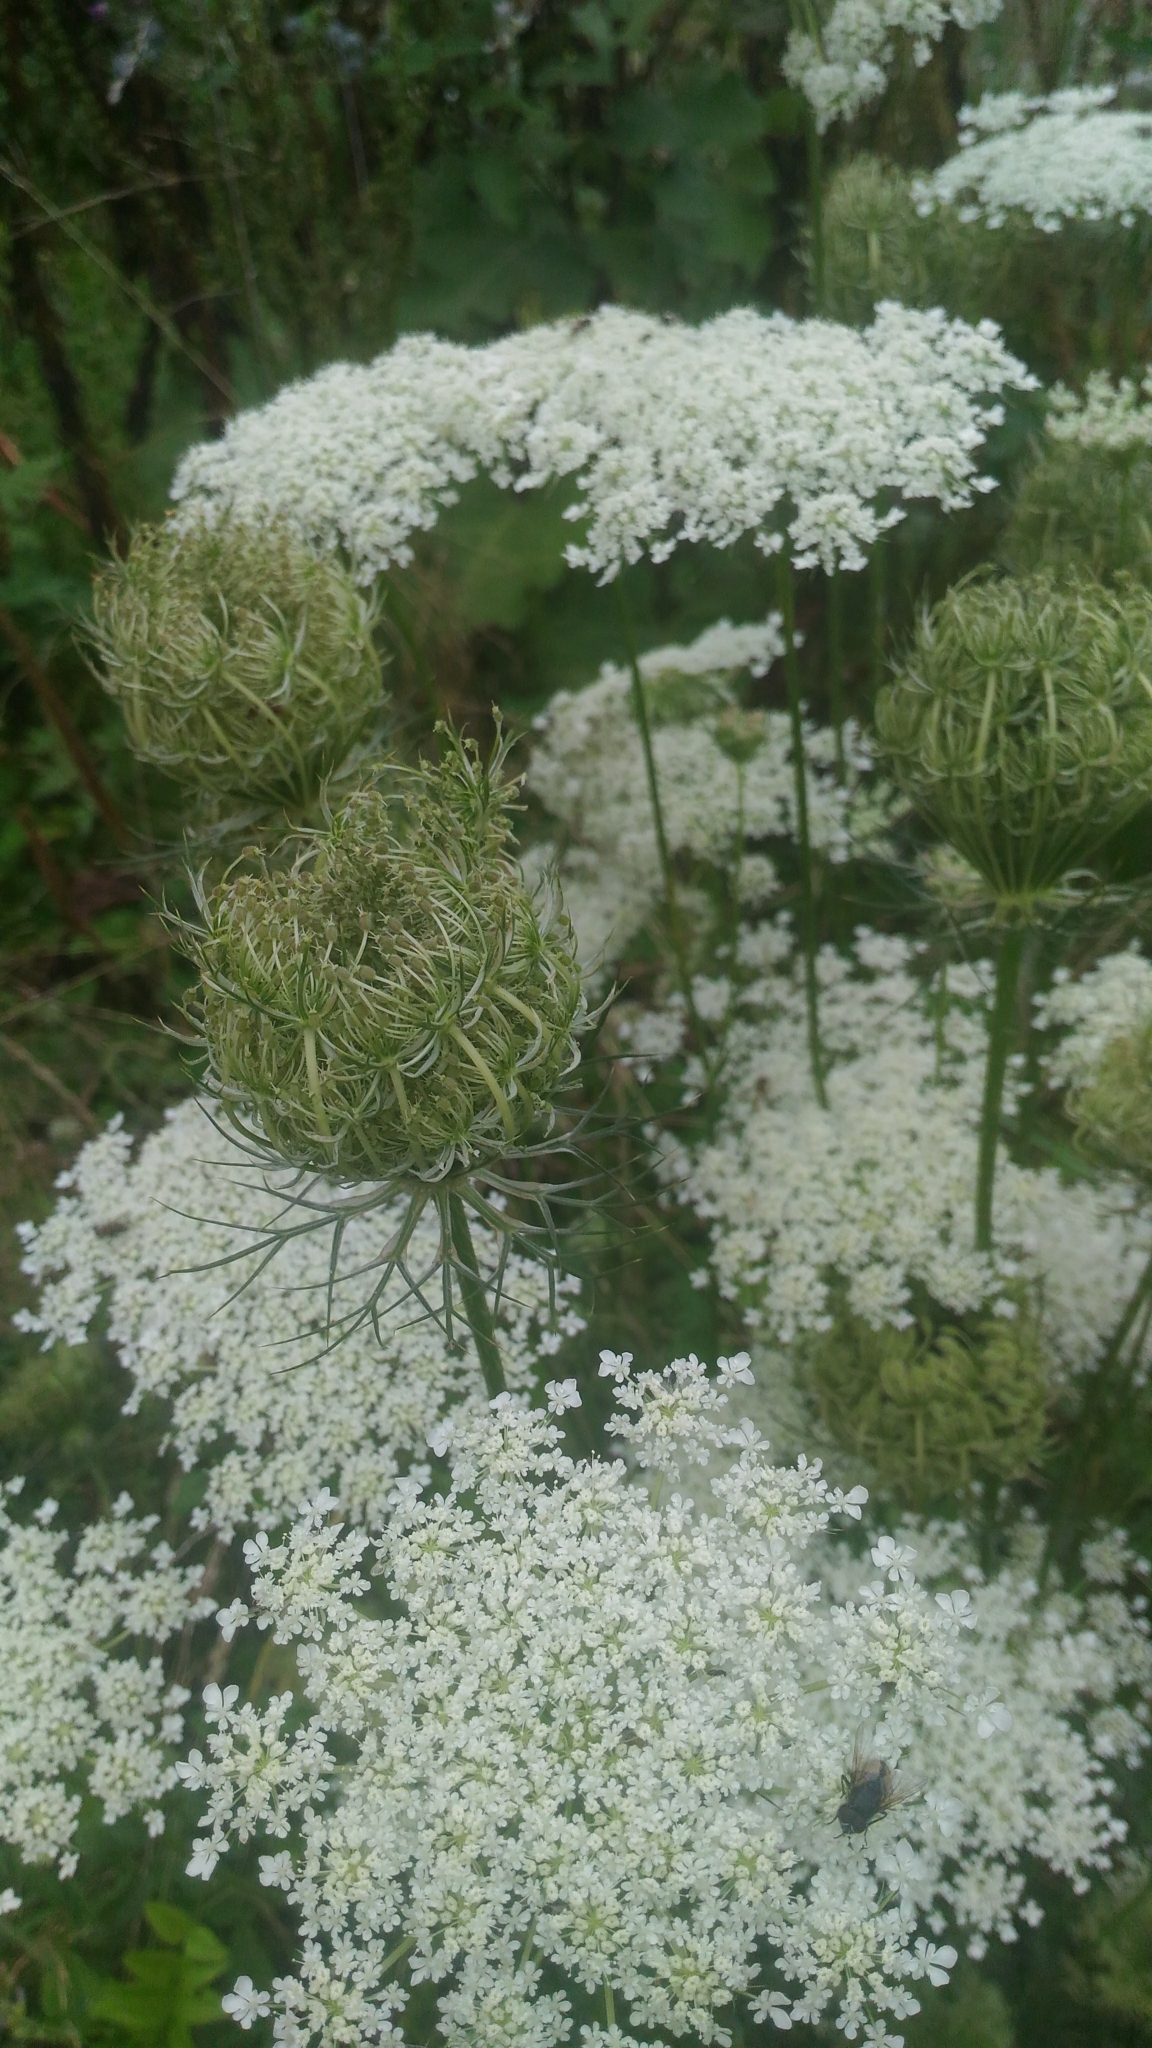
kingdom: Plantae
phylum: Tracheophyta
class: Magnoliopsida
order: Apiales
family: Apiaceae
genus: Daucus
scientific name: Daucus carota
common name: Wild carrot
